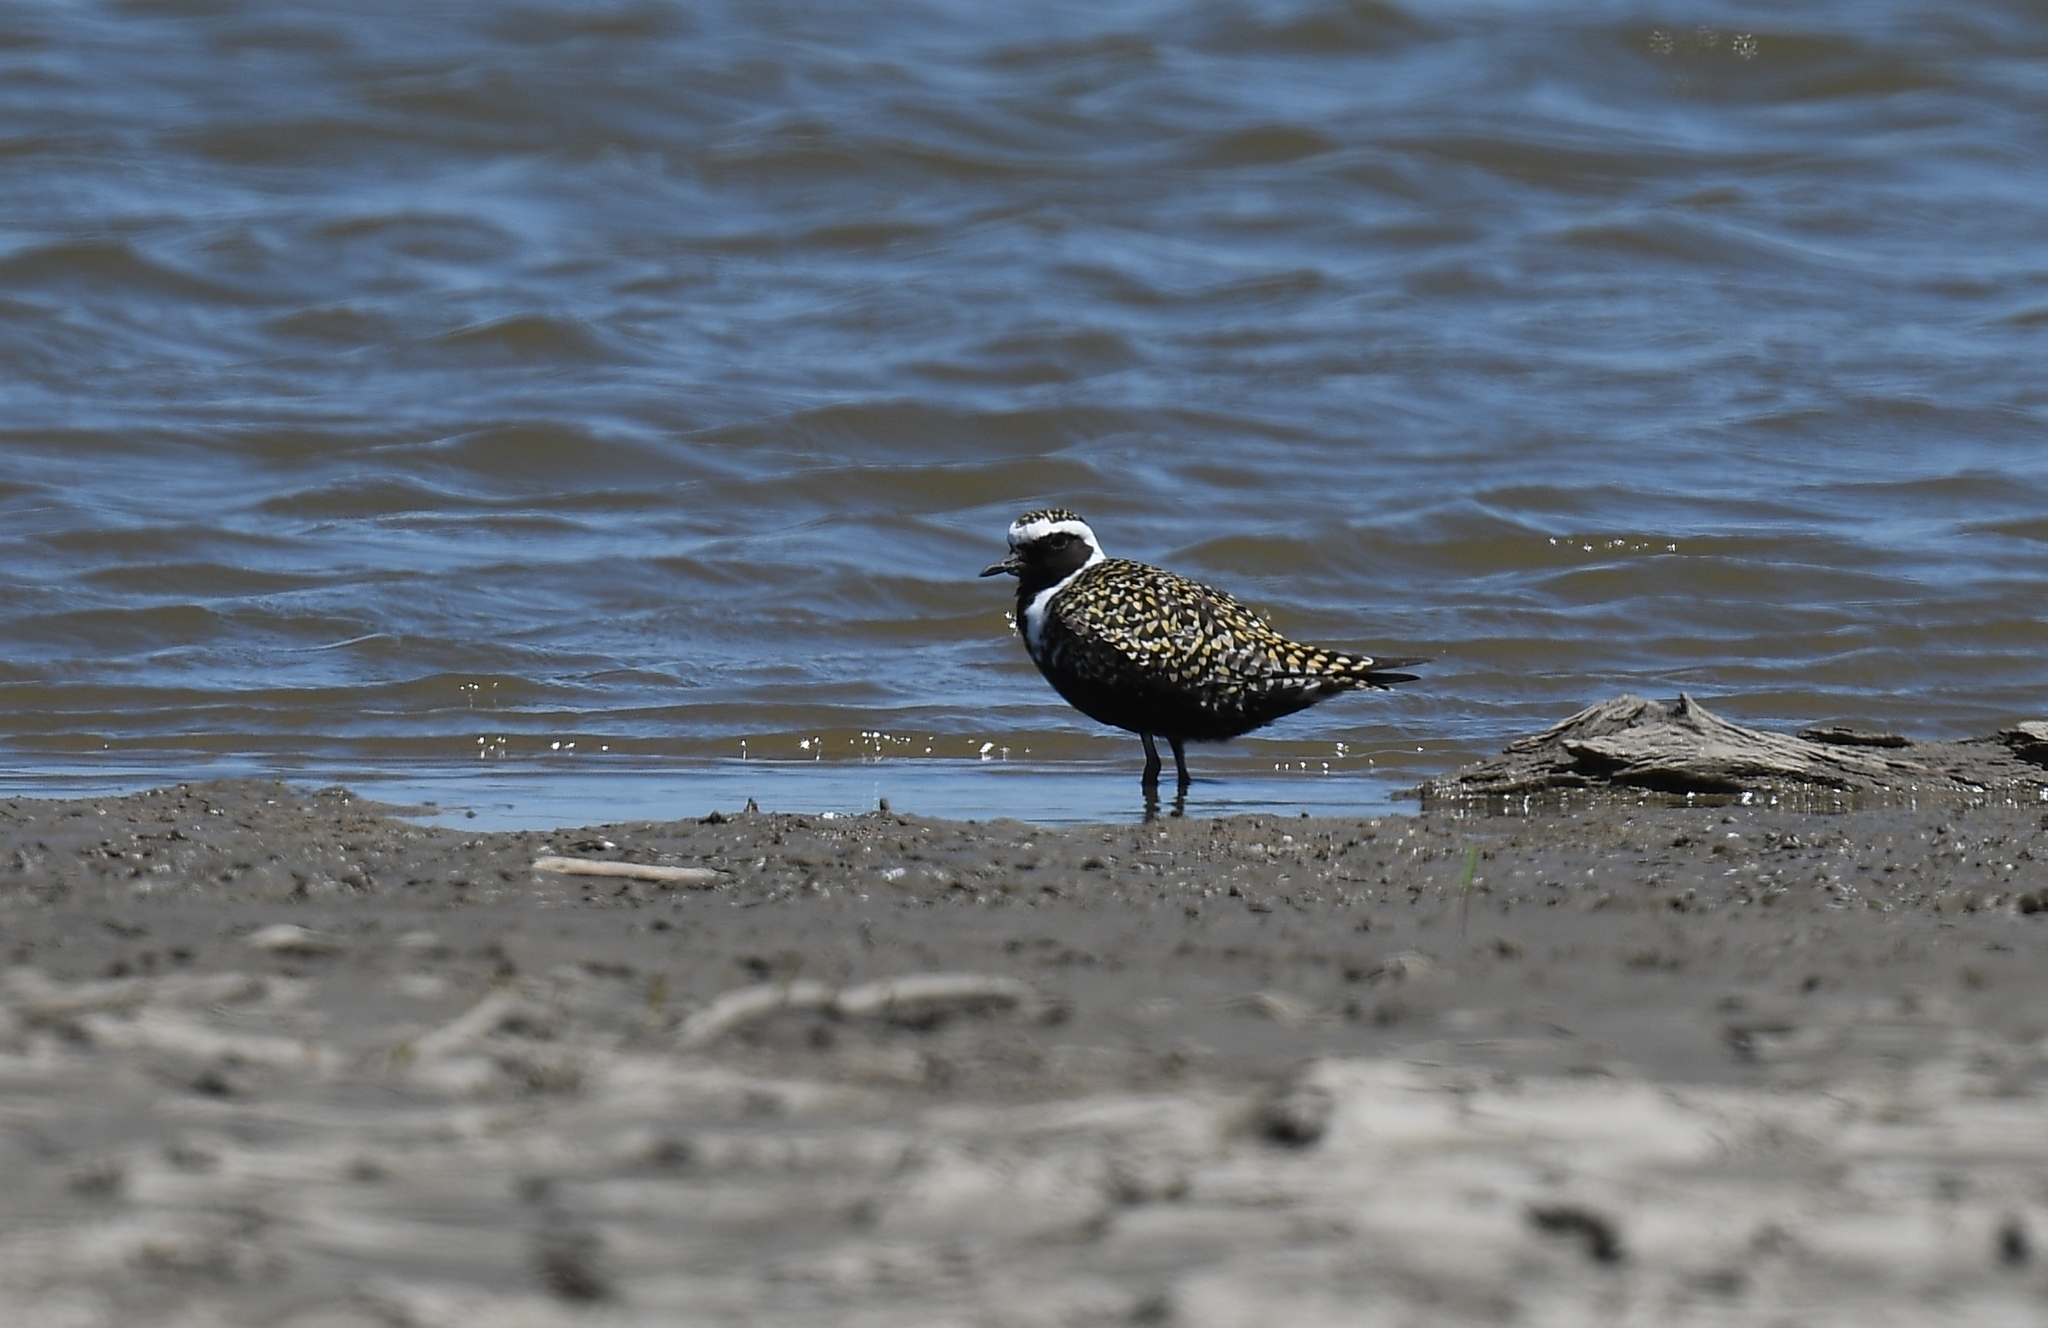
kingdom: Animalia
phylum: Chordata
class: Aves
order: Charadriiformes
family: Charadriidae
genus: Pluvialis
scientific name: Pluvialis dominica
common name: American golden plover
